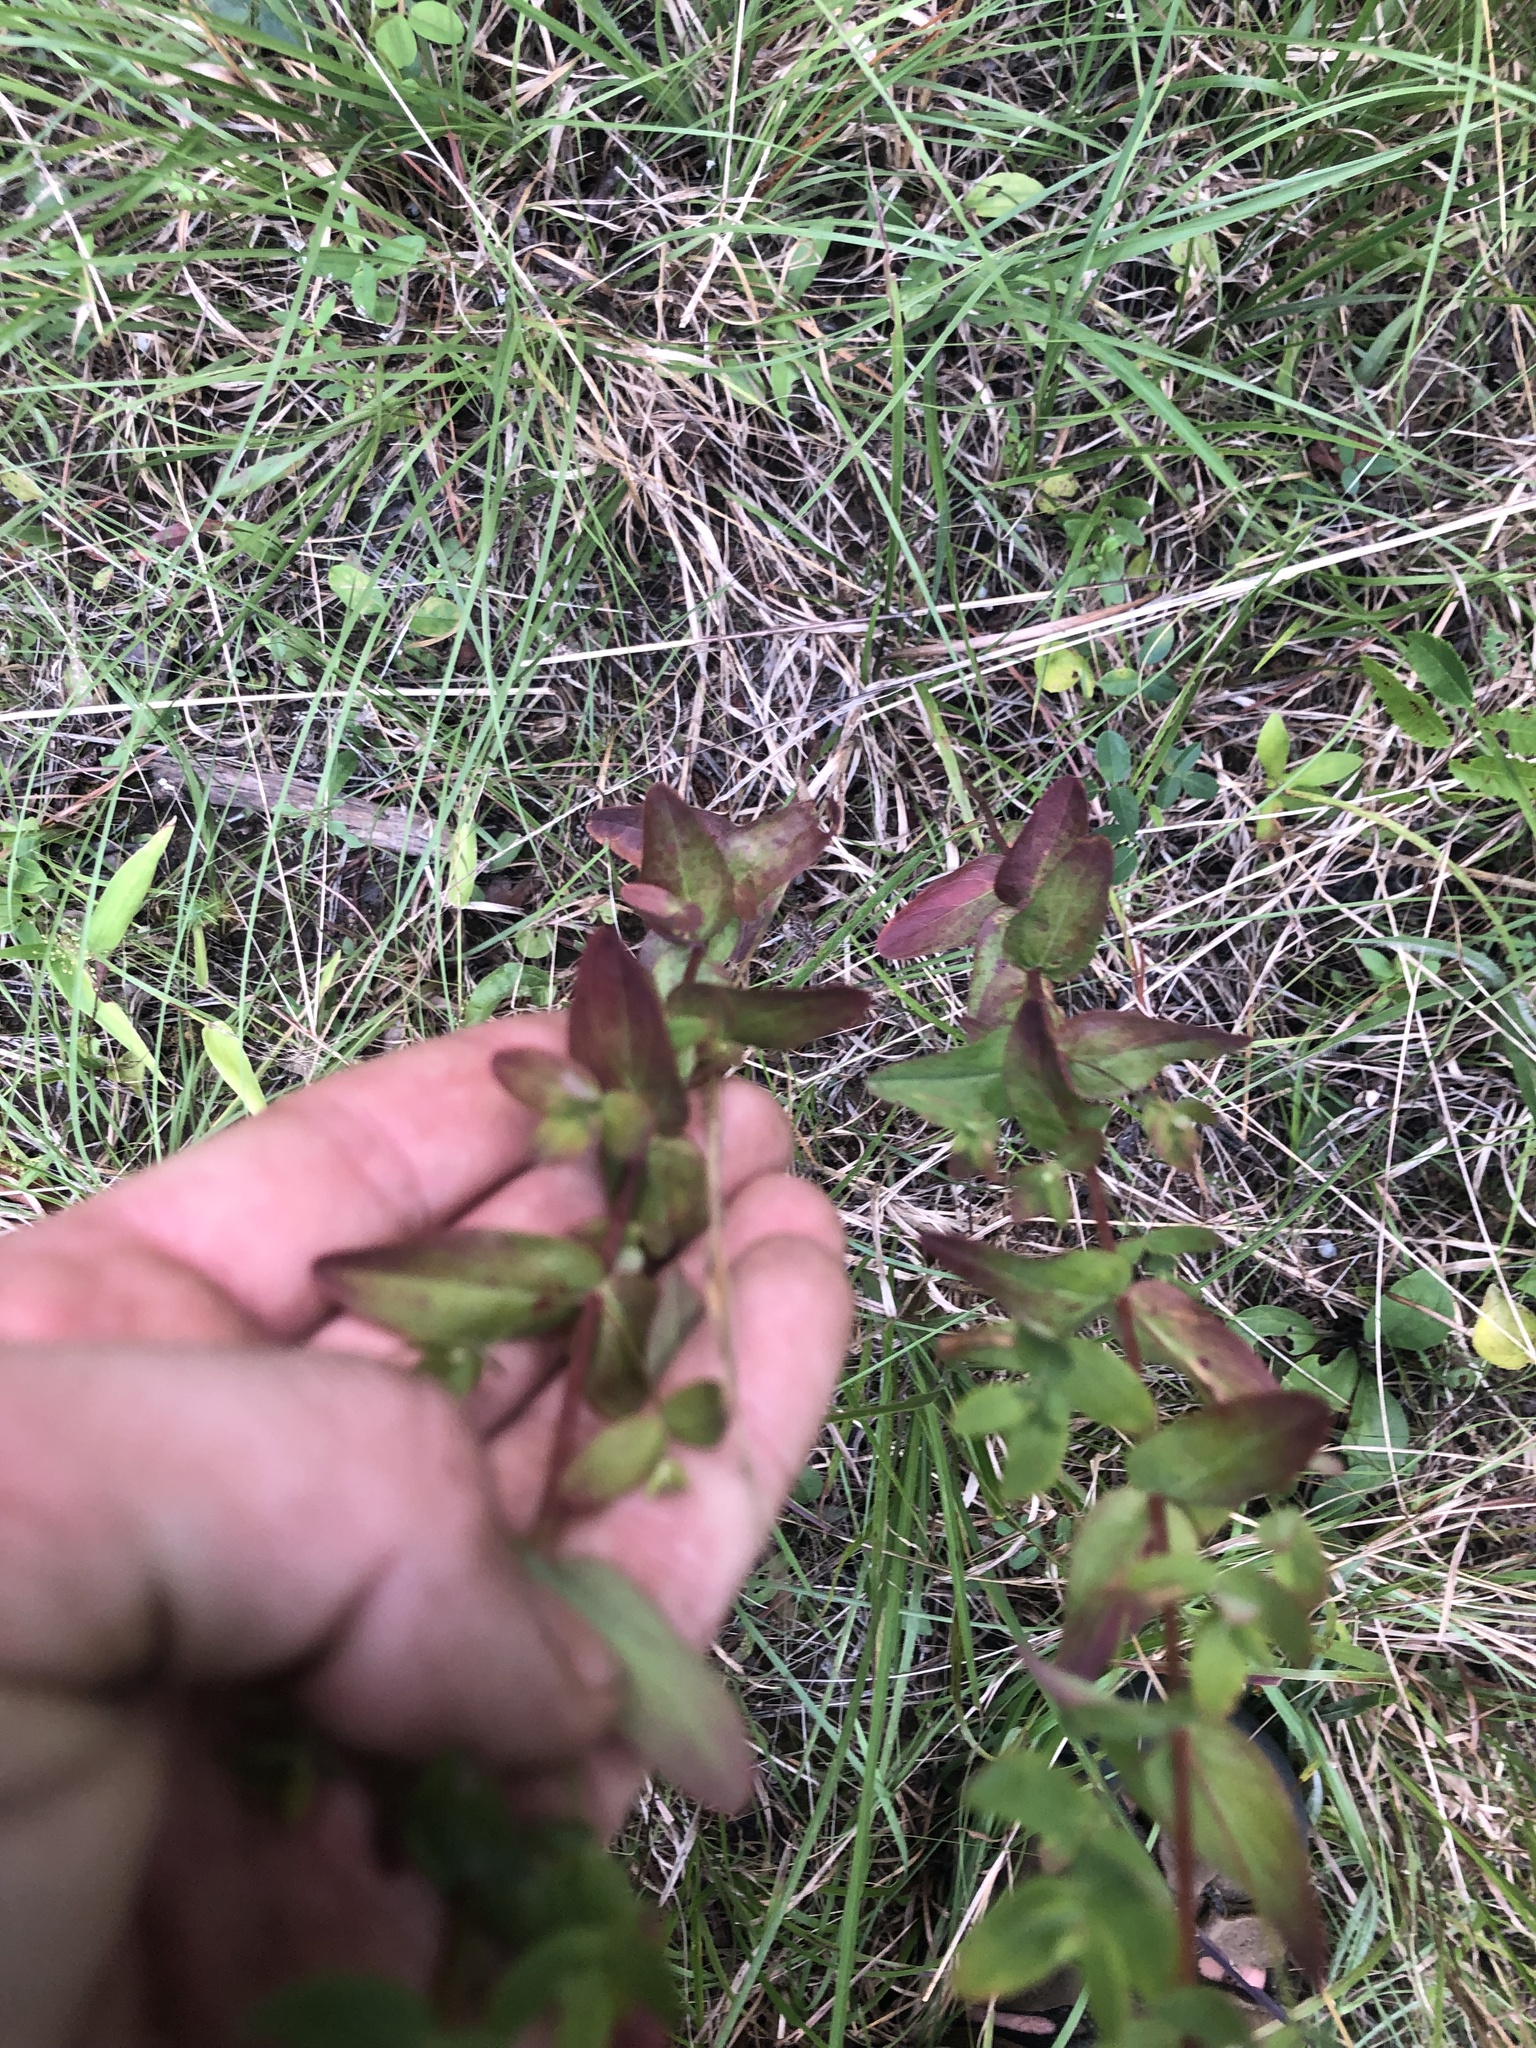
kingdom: Plantae
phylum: Tracheophyta
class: Magnoliopsida
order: Malpighiales
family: Hypericaceae
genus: Hypericum
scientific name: Hypericum punctatum
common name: Spotted st. john's-wort
